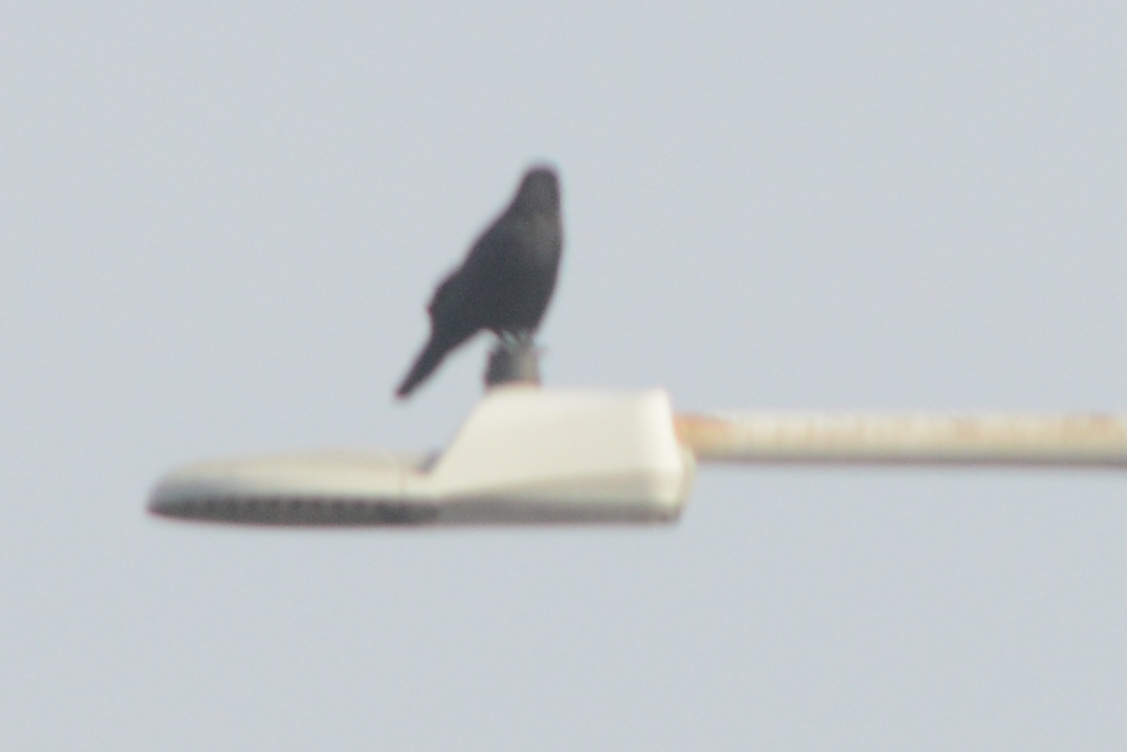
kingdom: Animalia
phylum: Chordata
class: Aves
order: Passeriformes
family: Corvidae
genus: Corvus
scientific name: Corvus brachyrhynchos
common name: American crow
